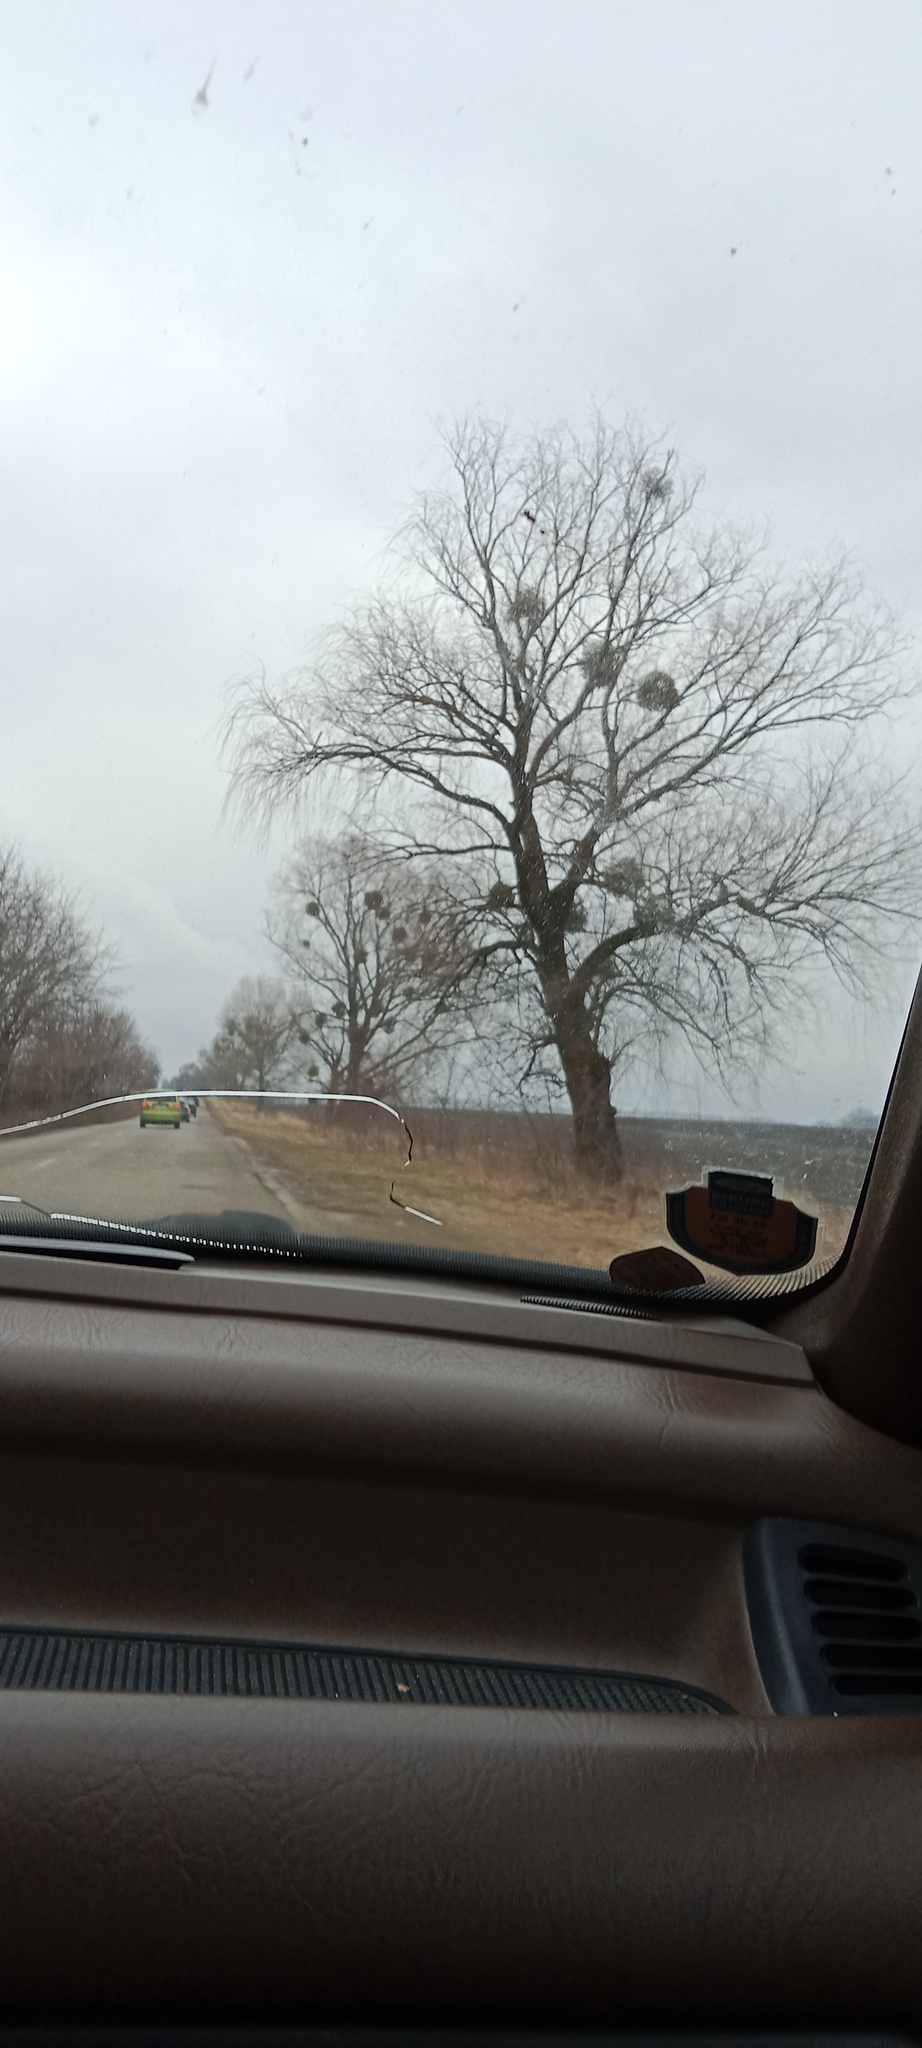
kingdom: Plantae
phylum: Tracheophyta
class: Magnoliopsida
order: Santalales
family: Viscaceae
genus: Viscum
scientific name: Viscum album
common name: Mistletoe
